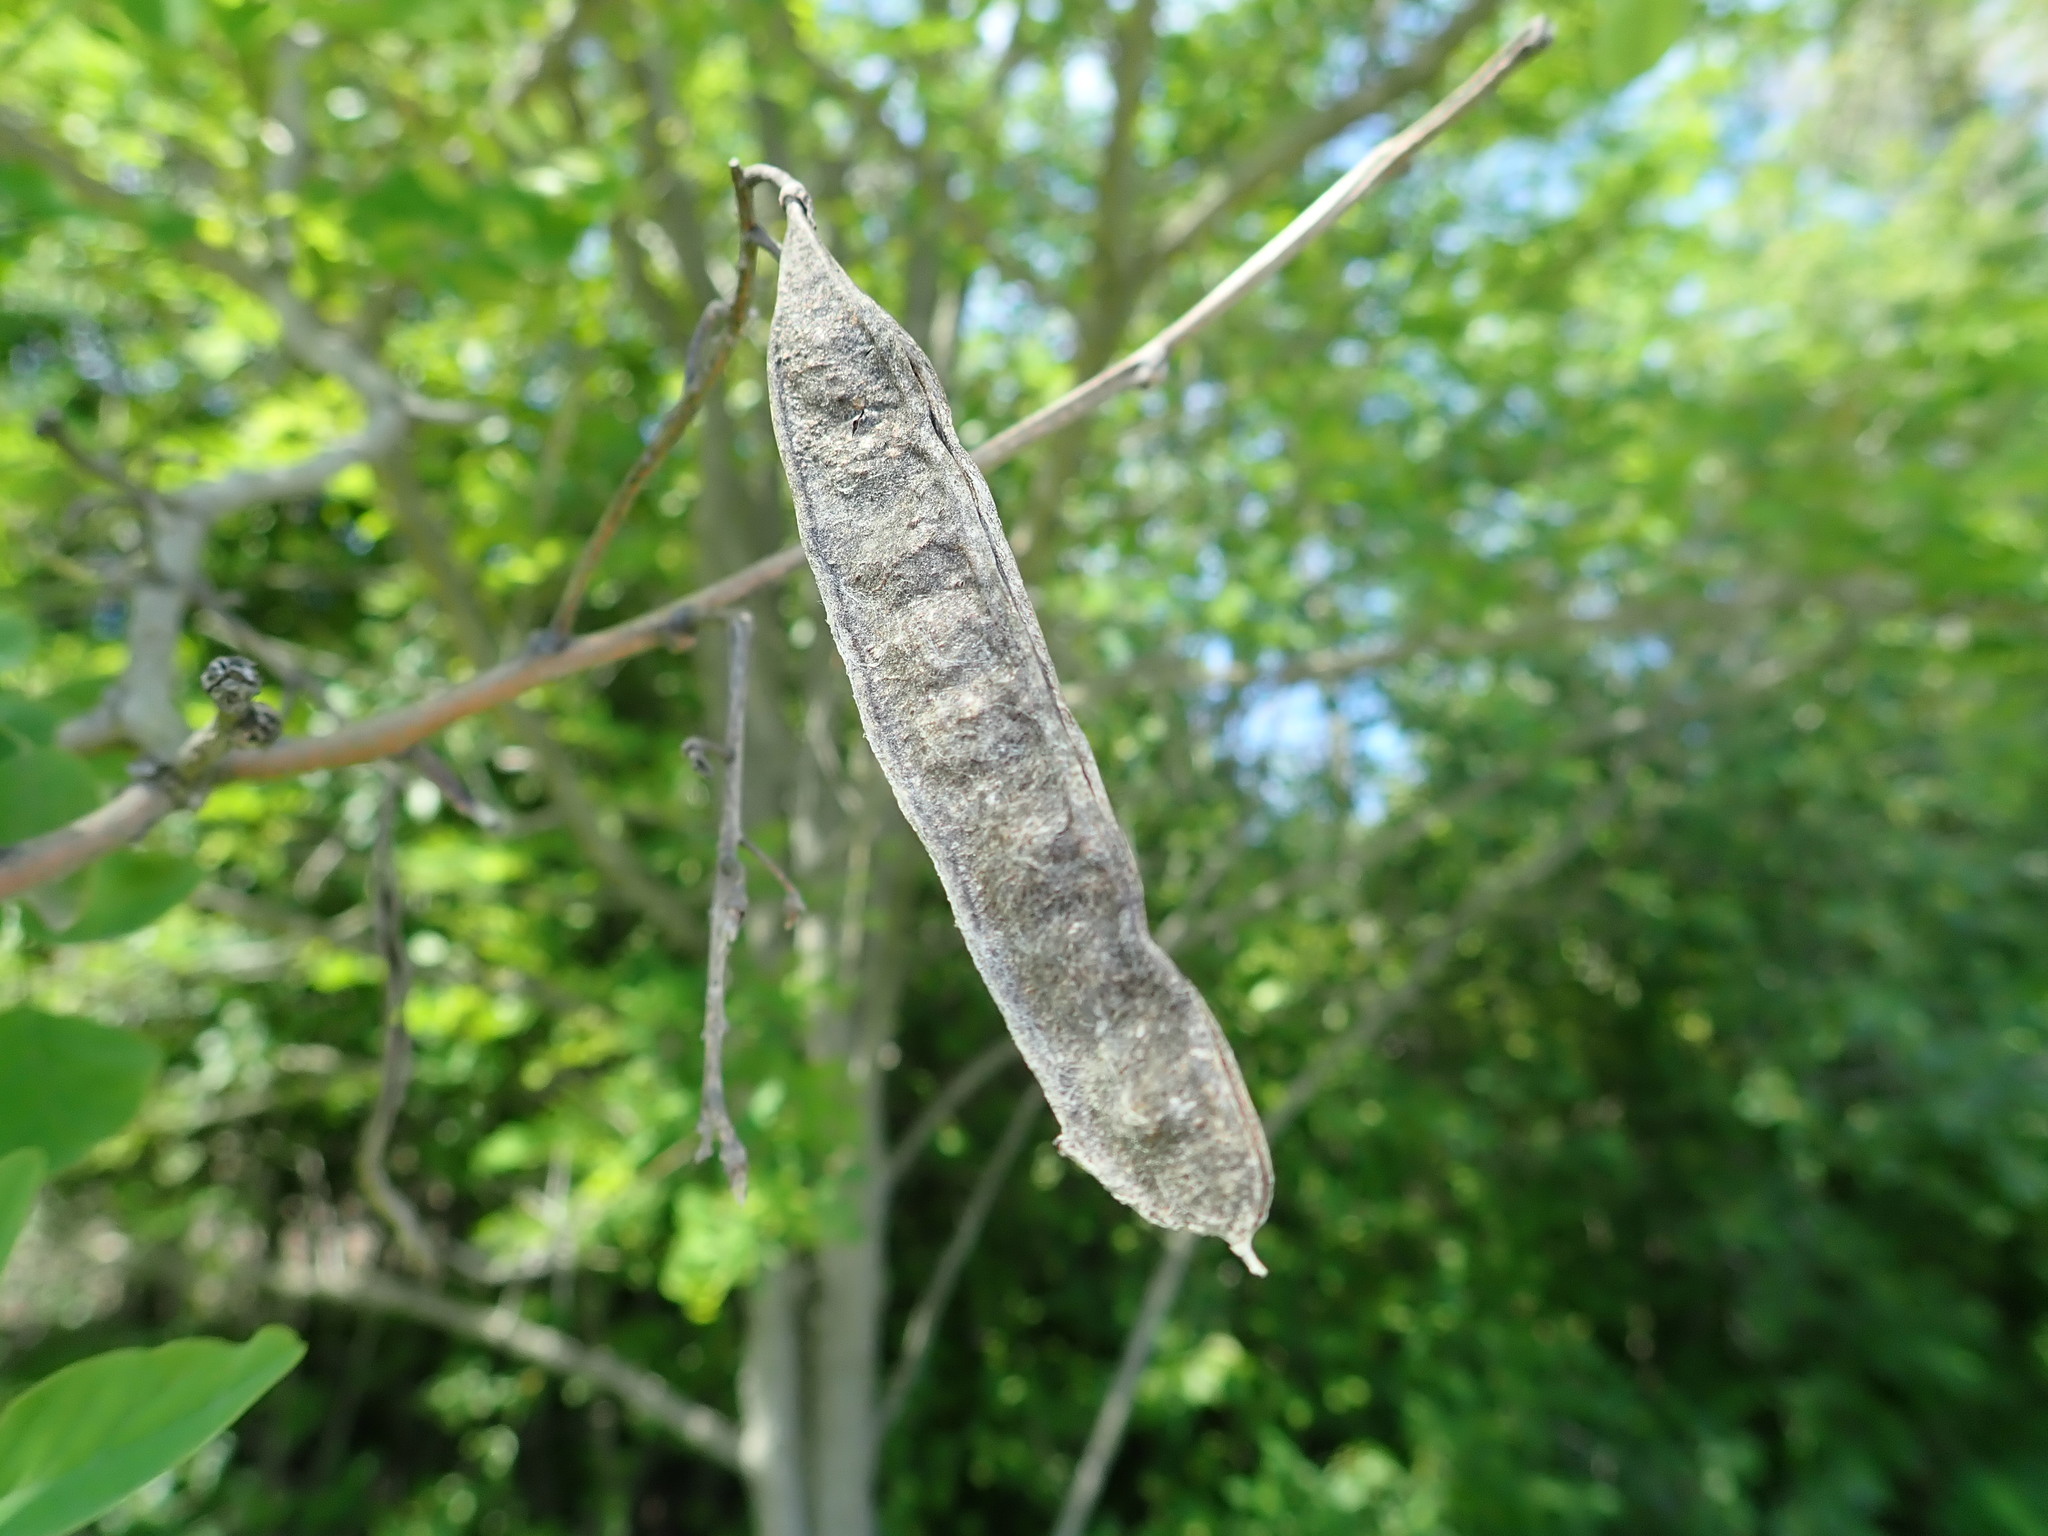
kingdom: Plantae
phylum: Tracheophyta
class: Magnoliopsida
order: Fabales
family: Fabaceae
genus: Robinia
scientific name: Robinia pseudoacacia
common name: Black locust
